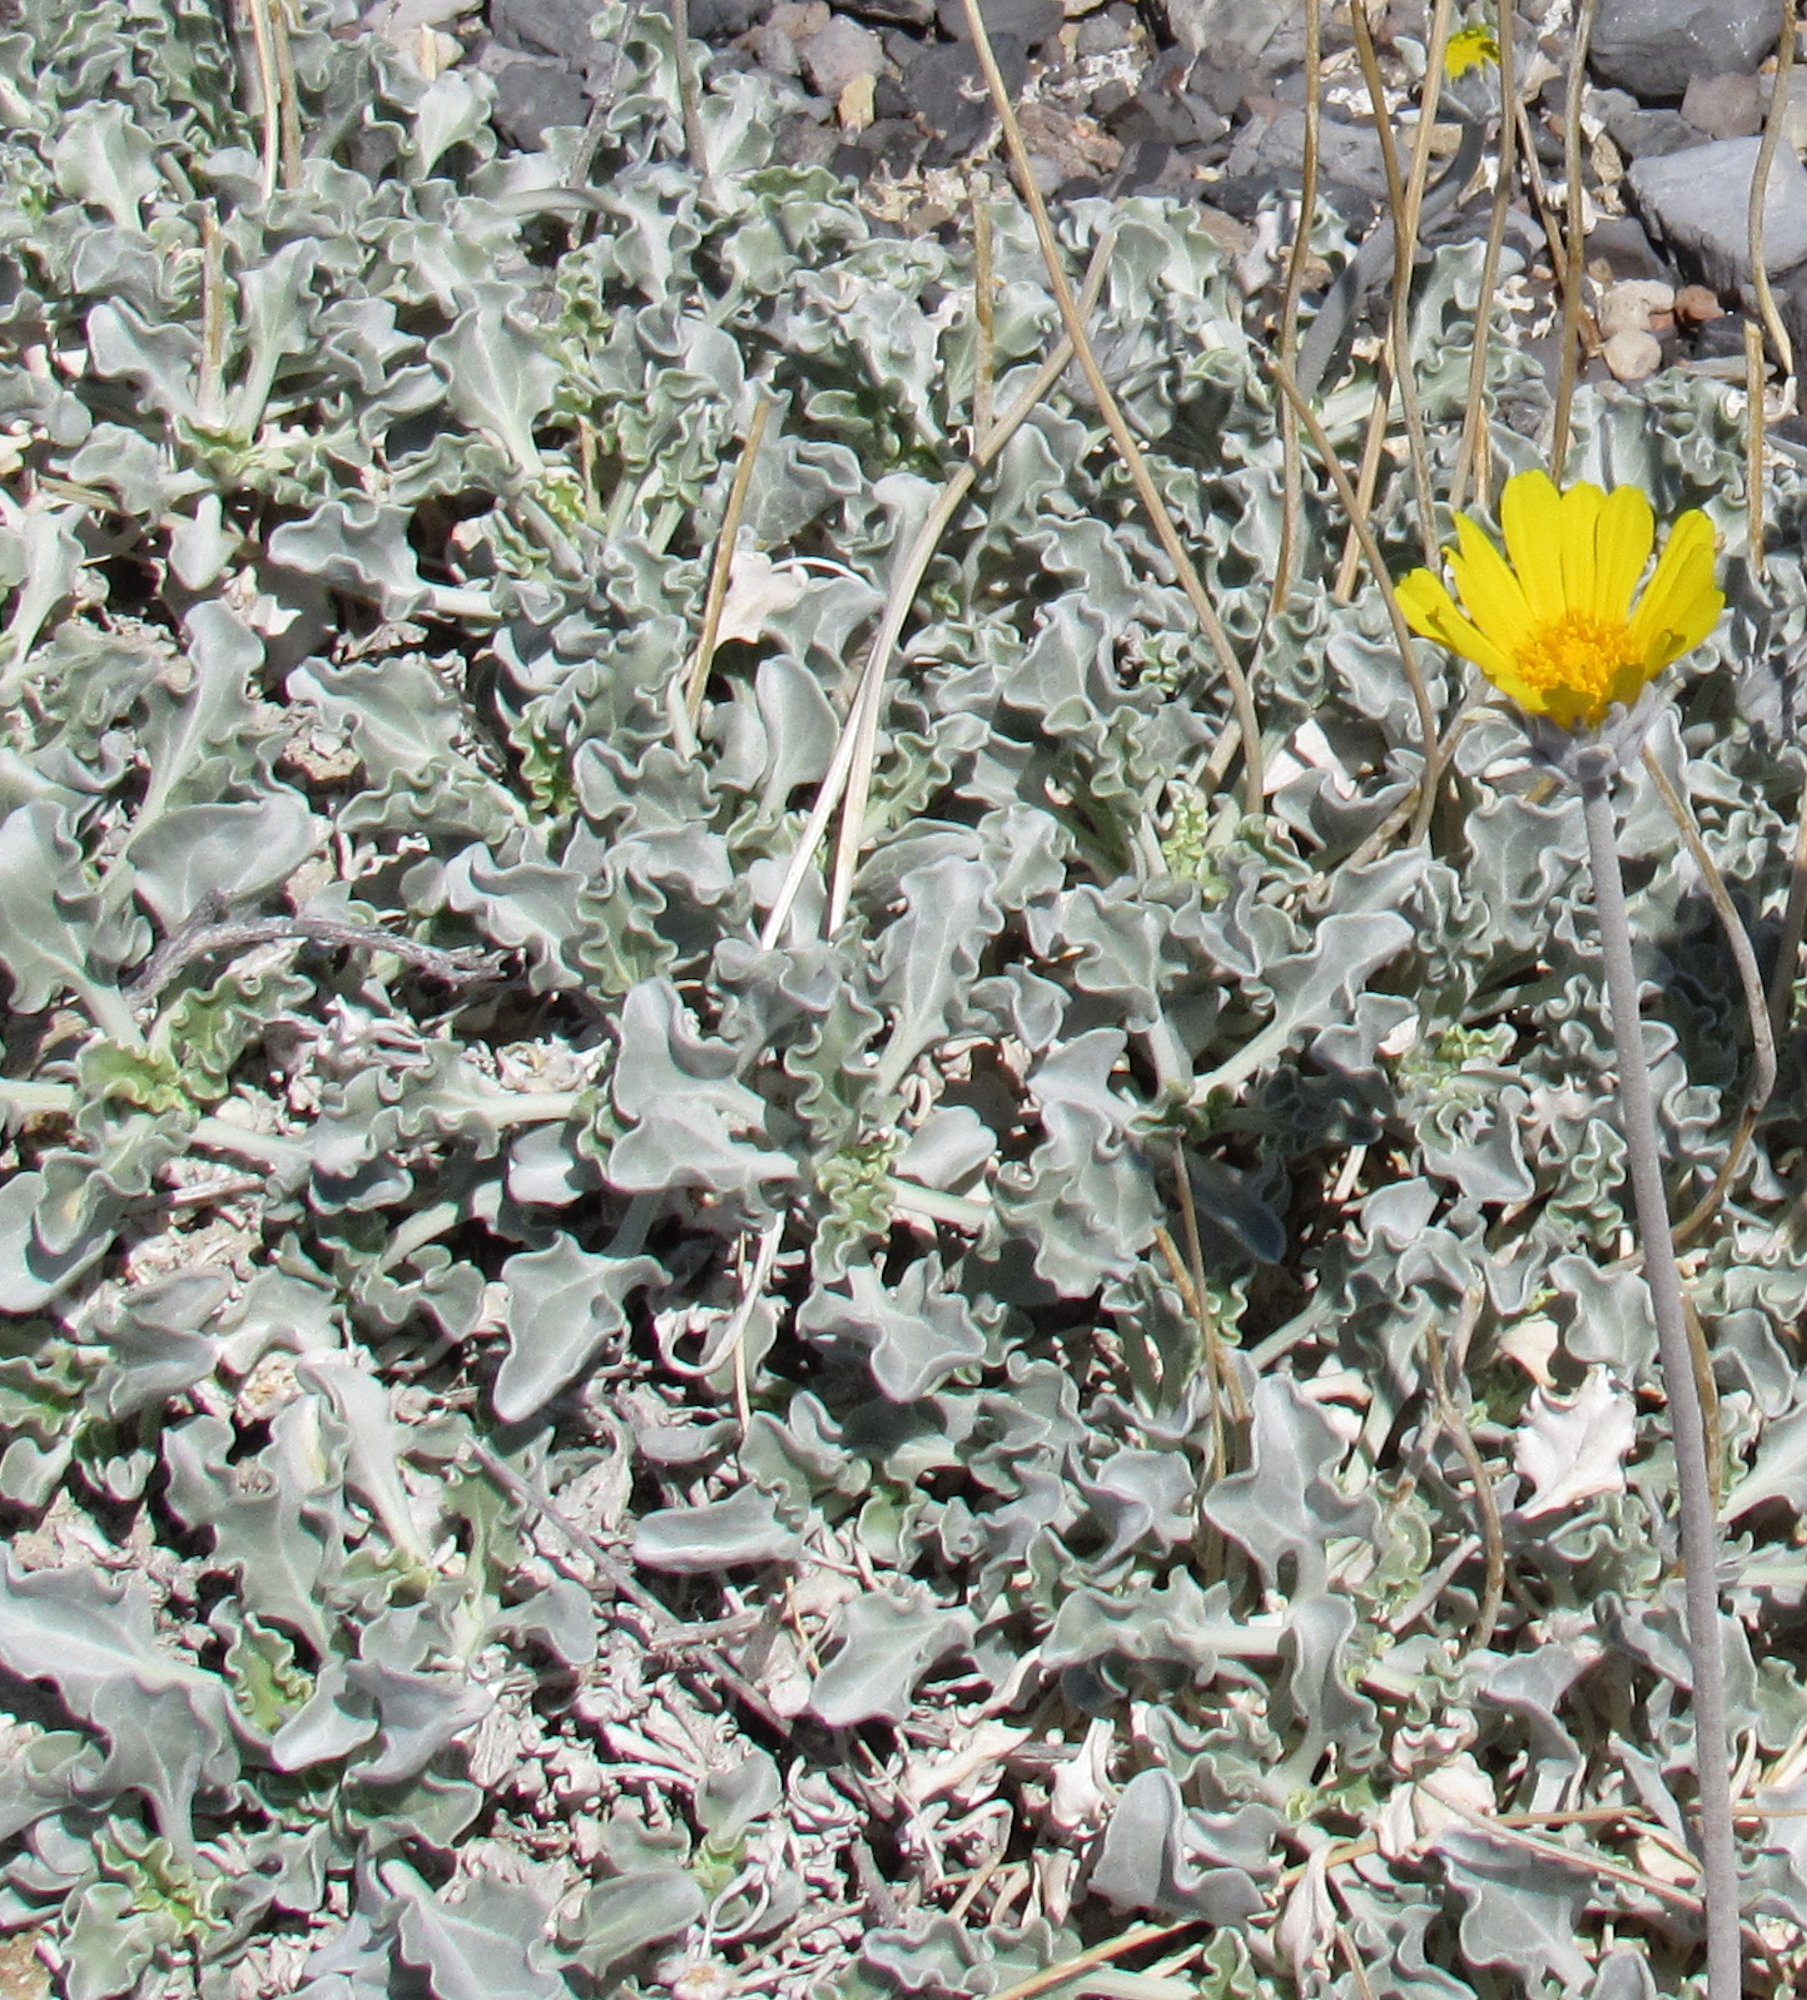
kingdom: Plantae
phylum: Tracheophyta
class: Magnoliopsida
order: Asterales
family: Asteraceae
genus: Enceliopsis
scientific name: Enceliopsis nudicaulis
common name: Naked-stem daisy
